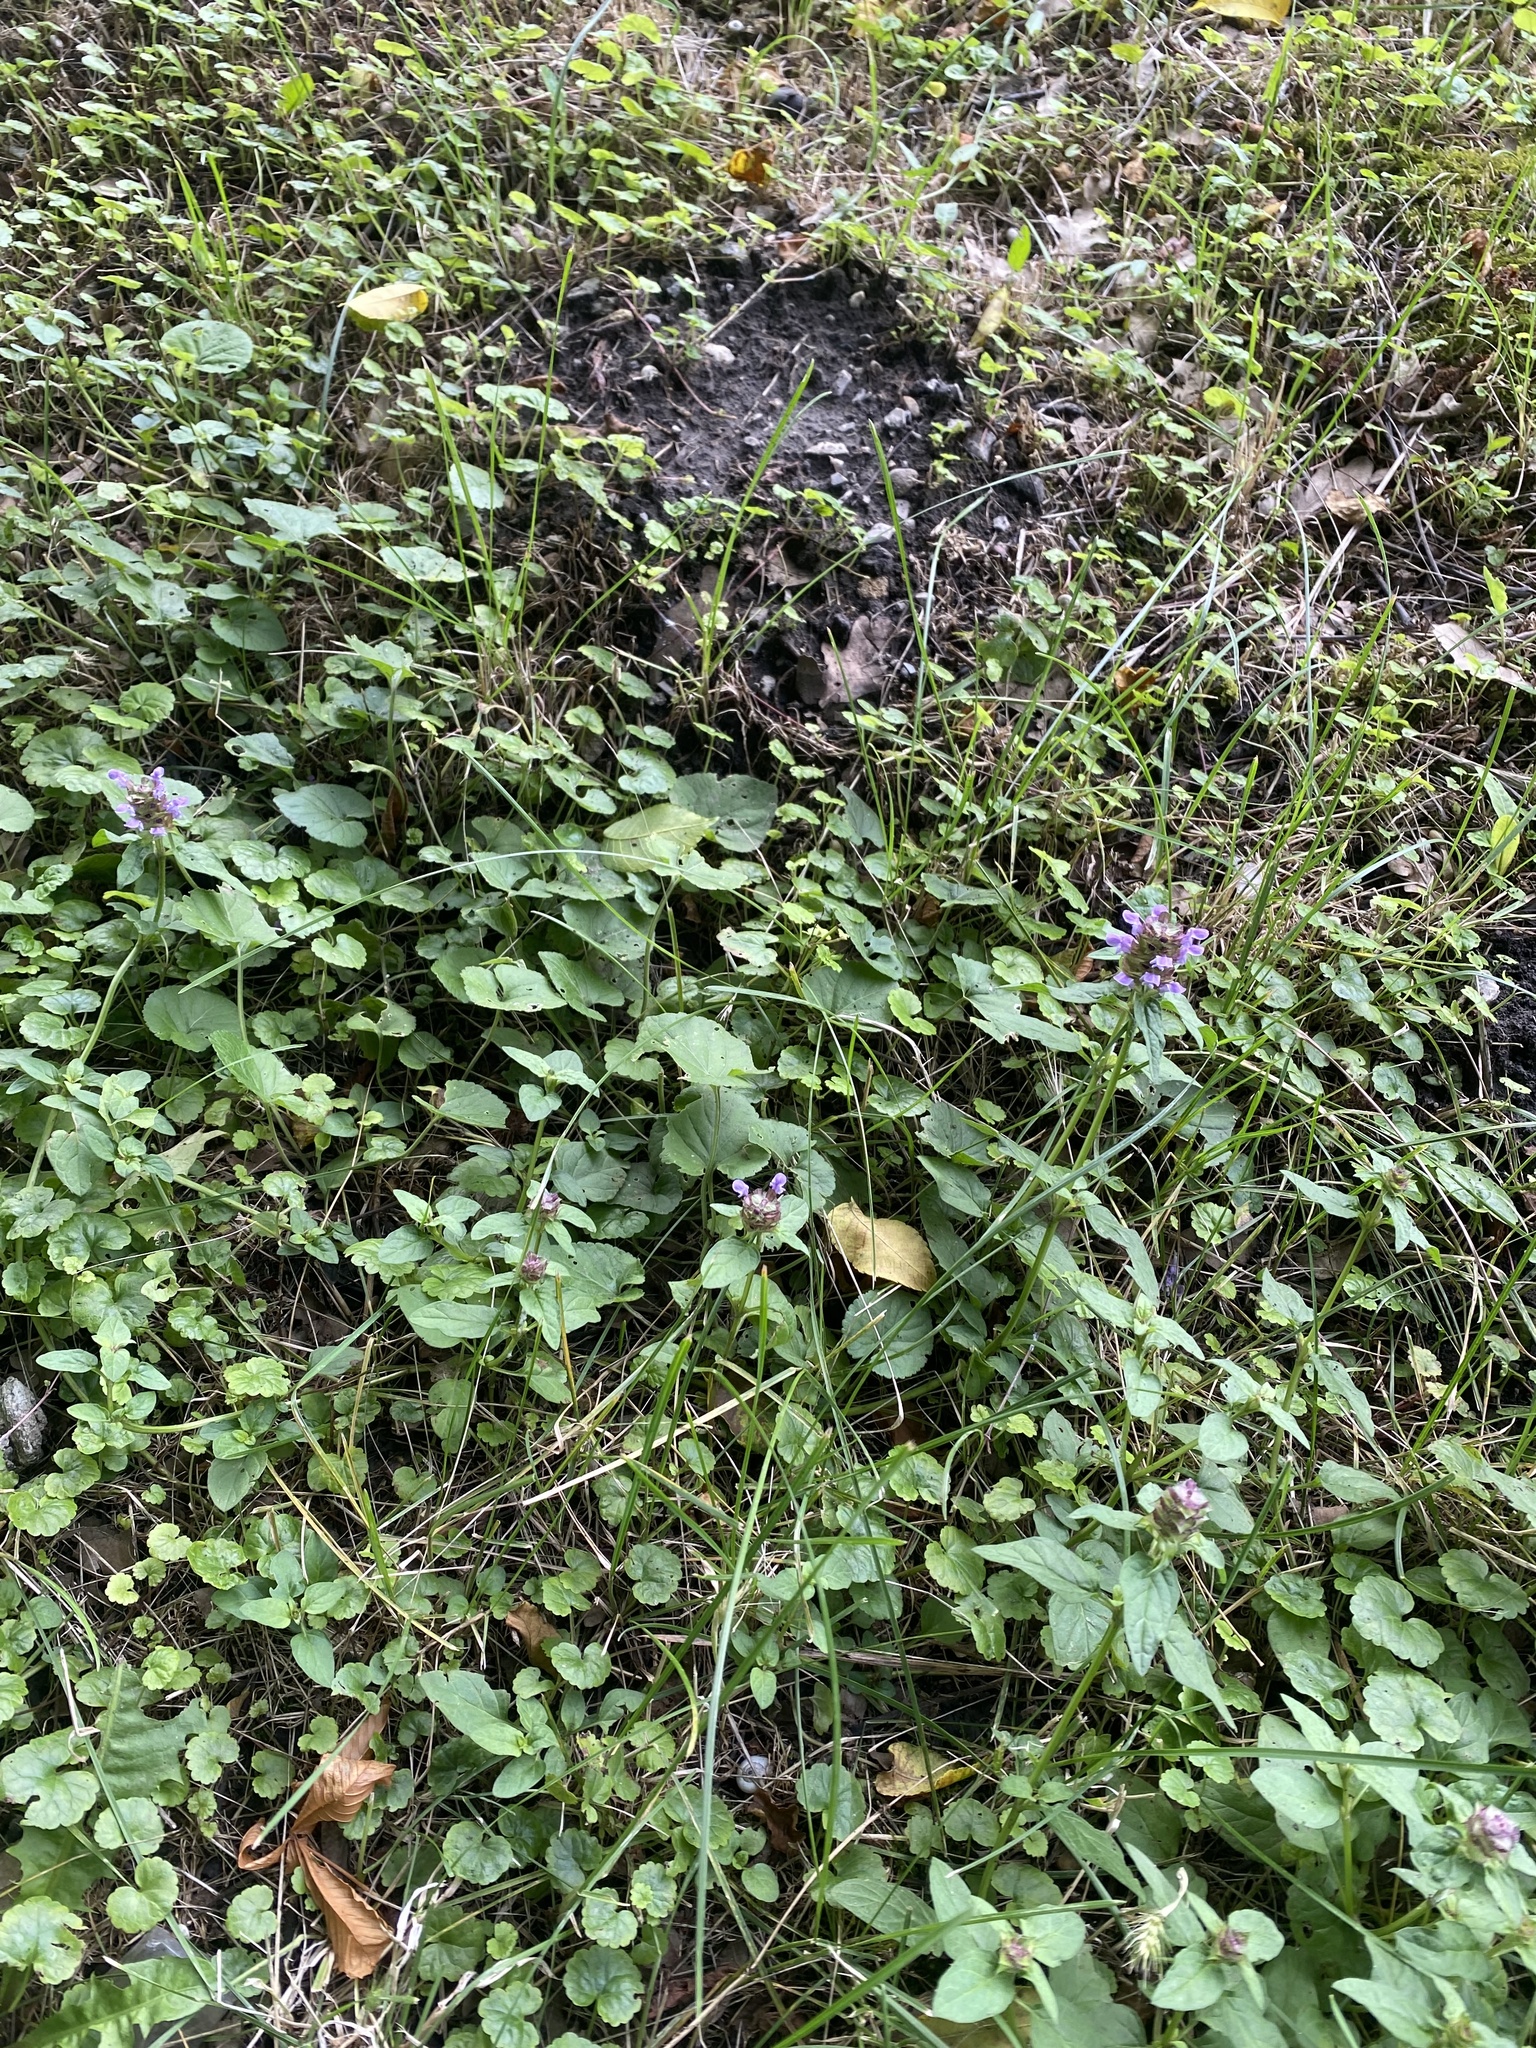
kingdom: Plantae
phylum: Tracheophyta
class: Magnoliopsida
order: Lamiales
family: Lamiaceae
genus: Prunella
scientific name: Prunella vulgaris
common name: Heal-all
